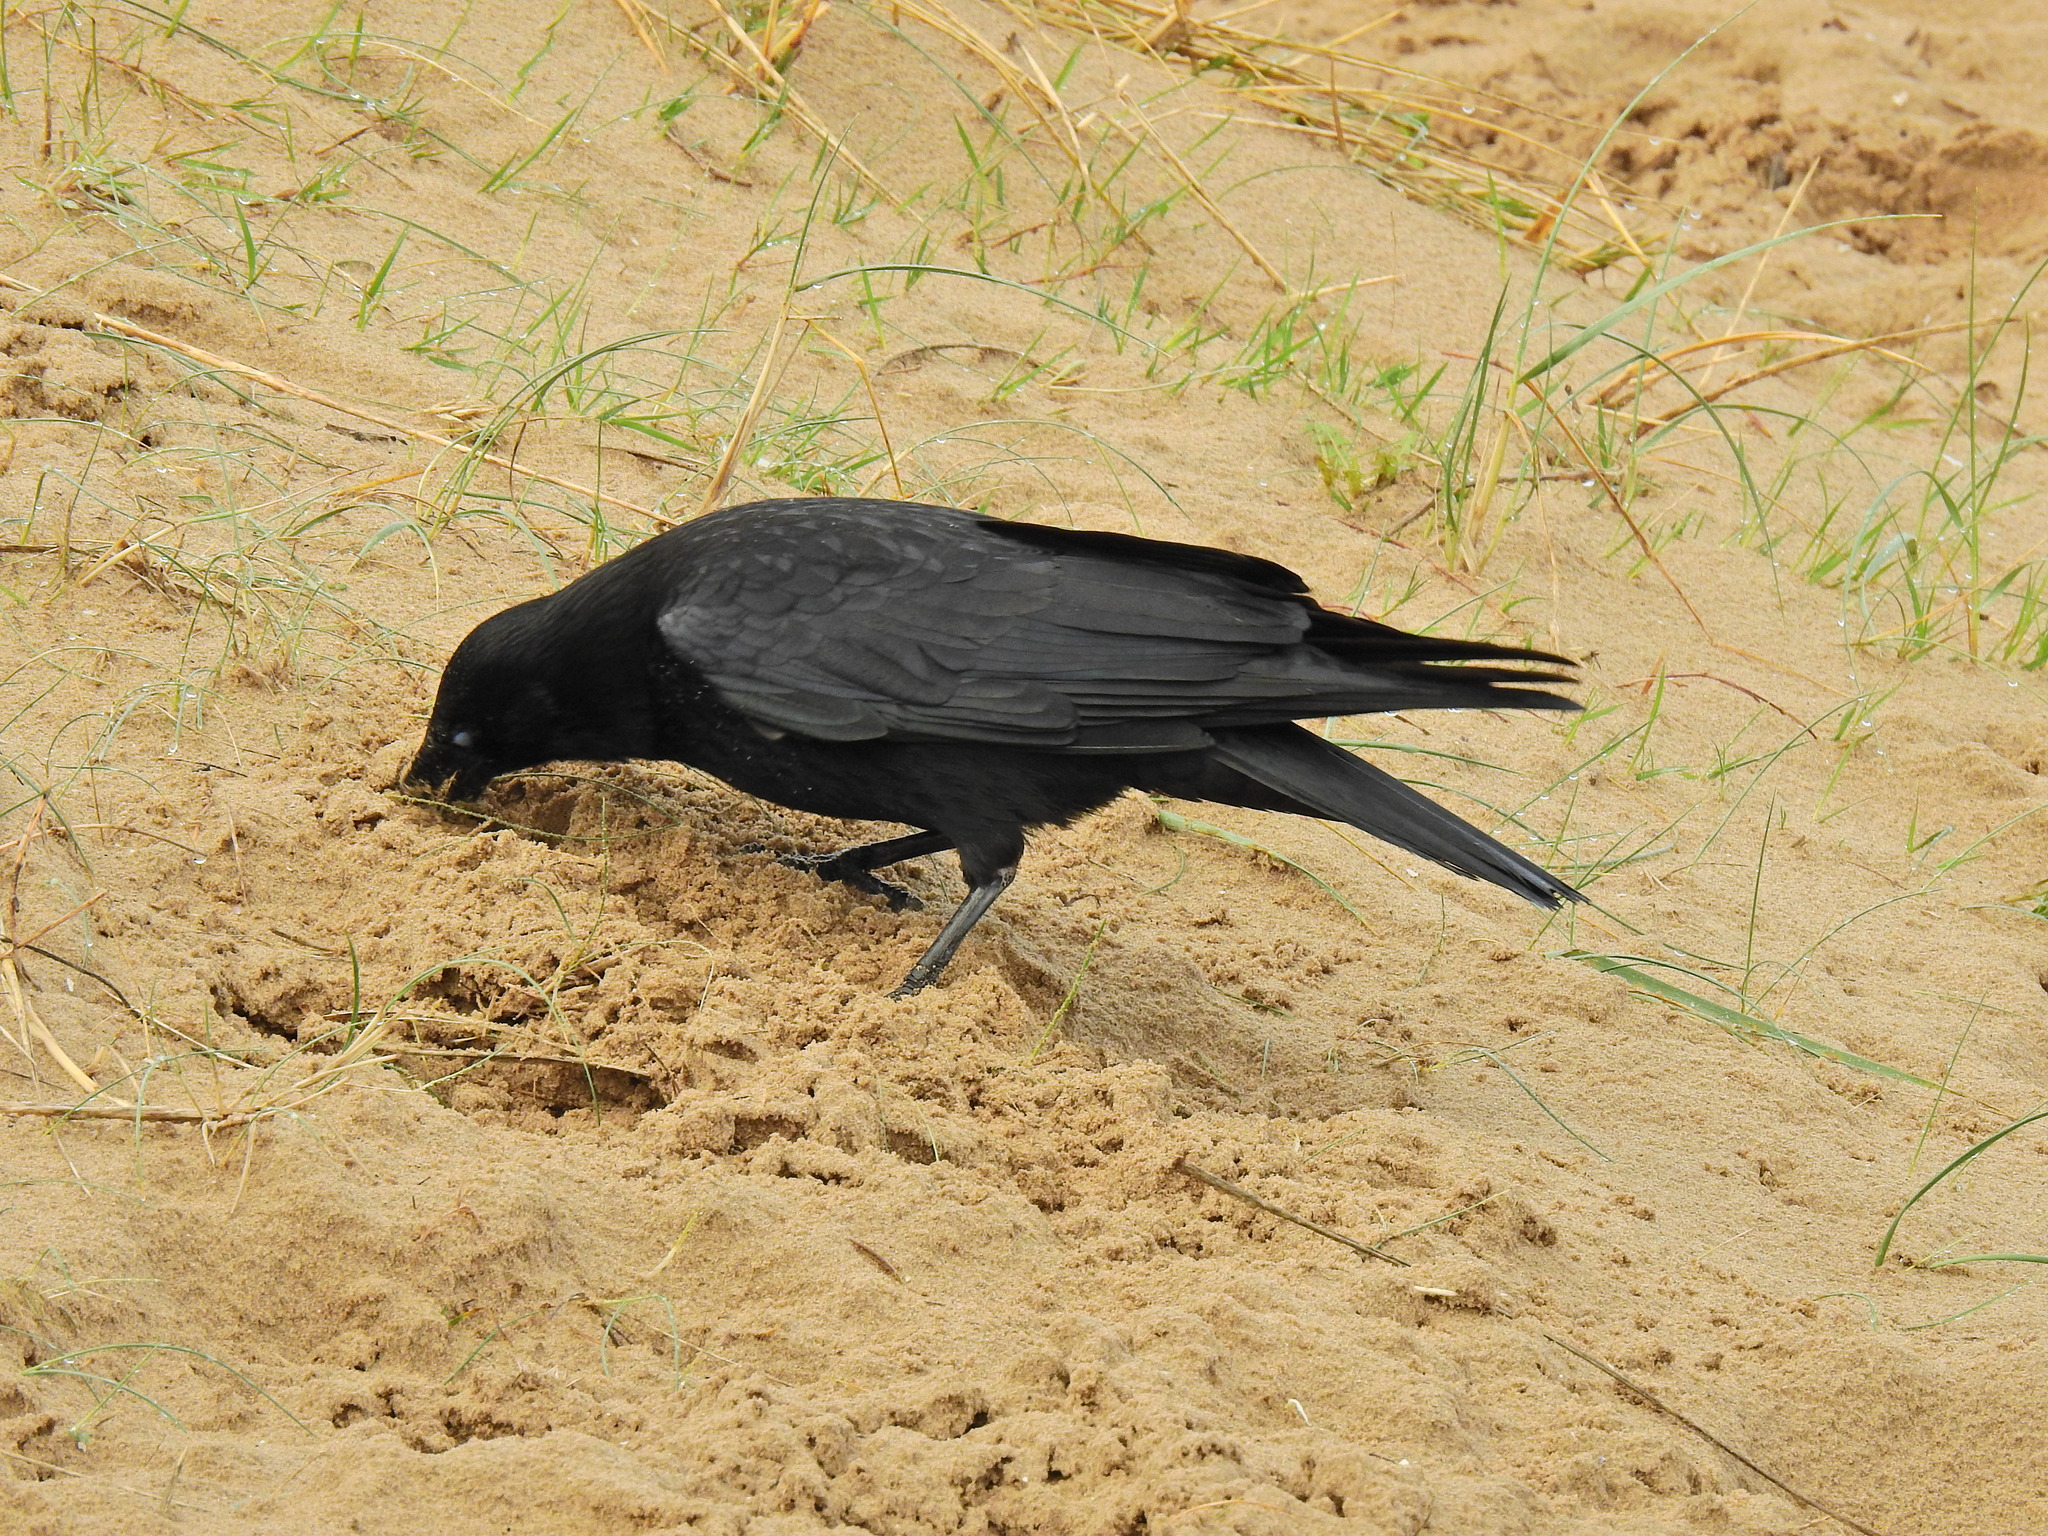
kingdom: Animalia
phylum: Chordata
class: Aves
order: Passeriformes
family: Corvidae
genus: Corvus
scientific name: Corvus corone
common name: Carrion crow
